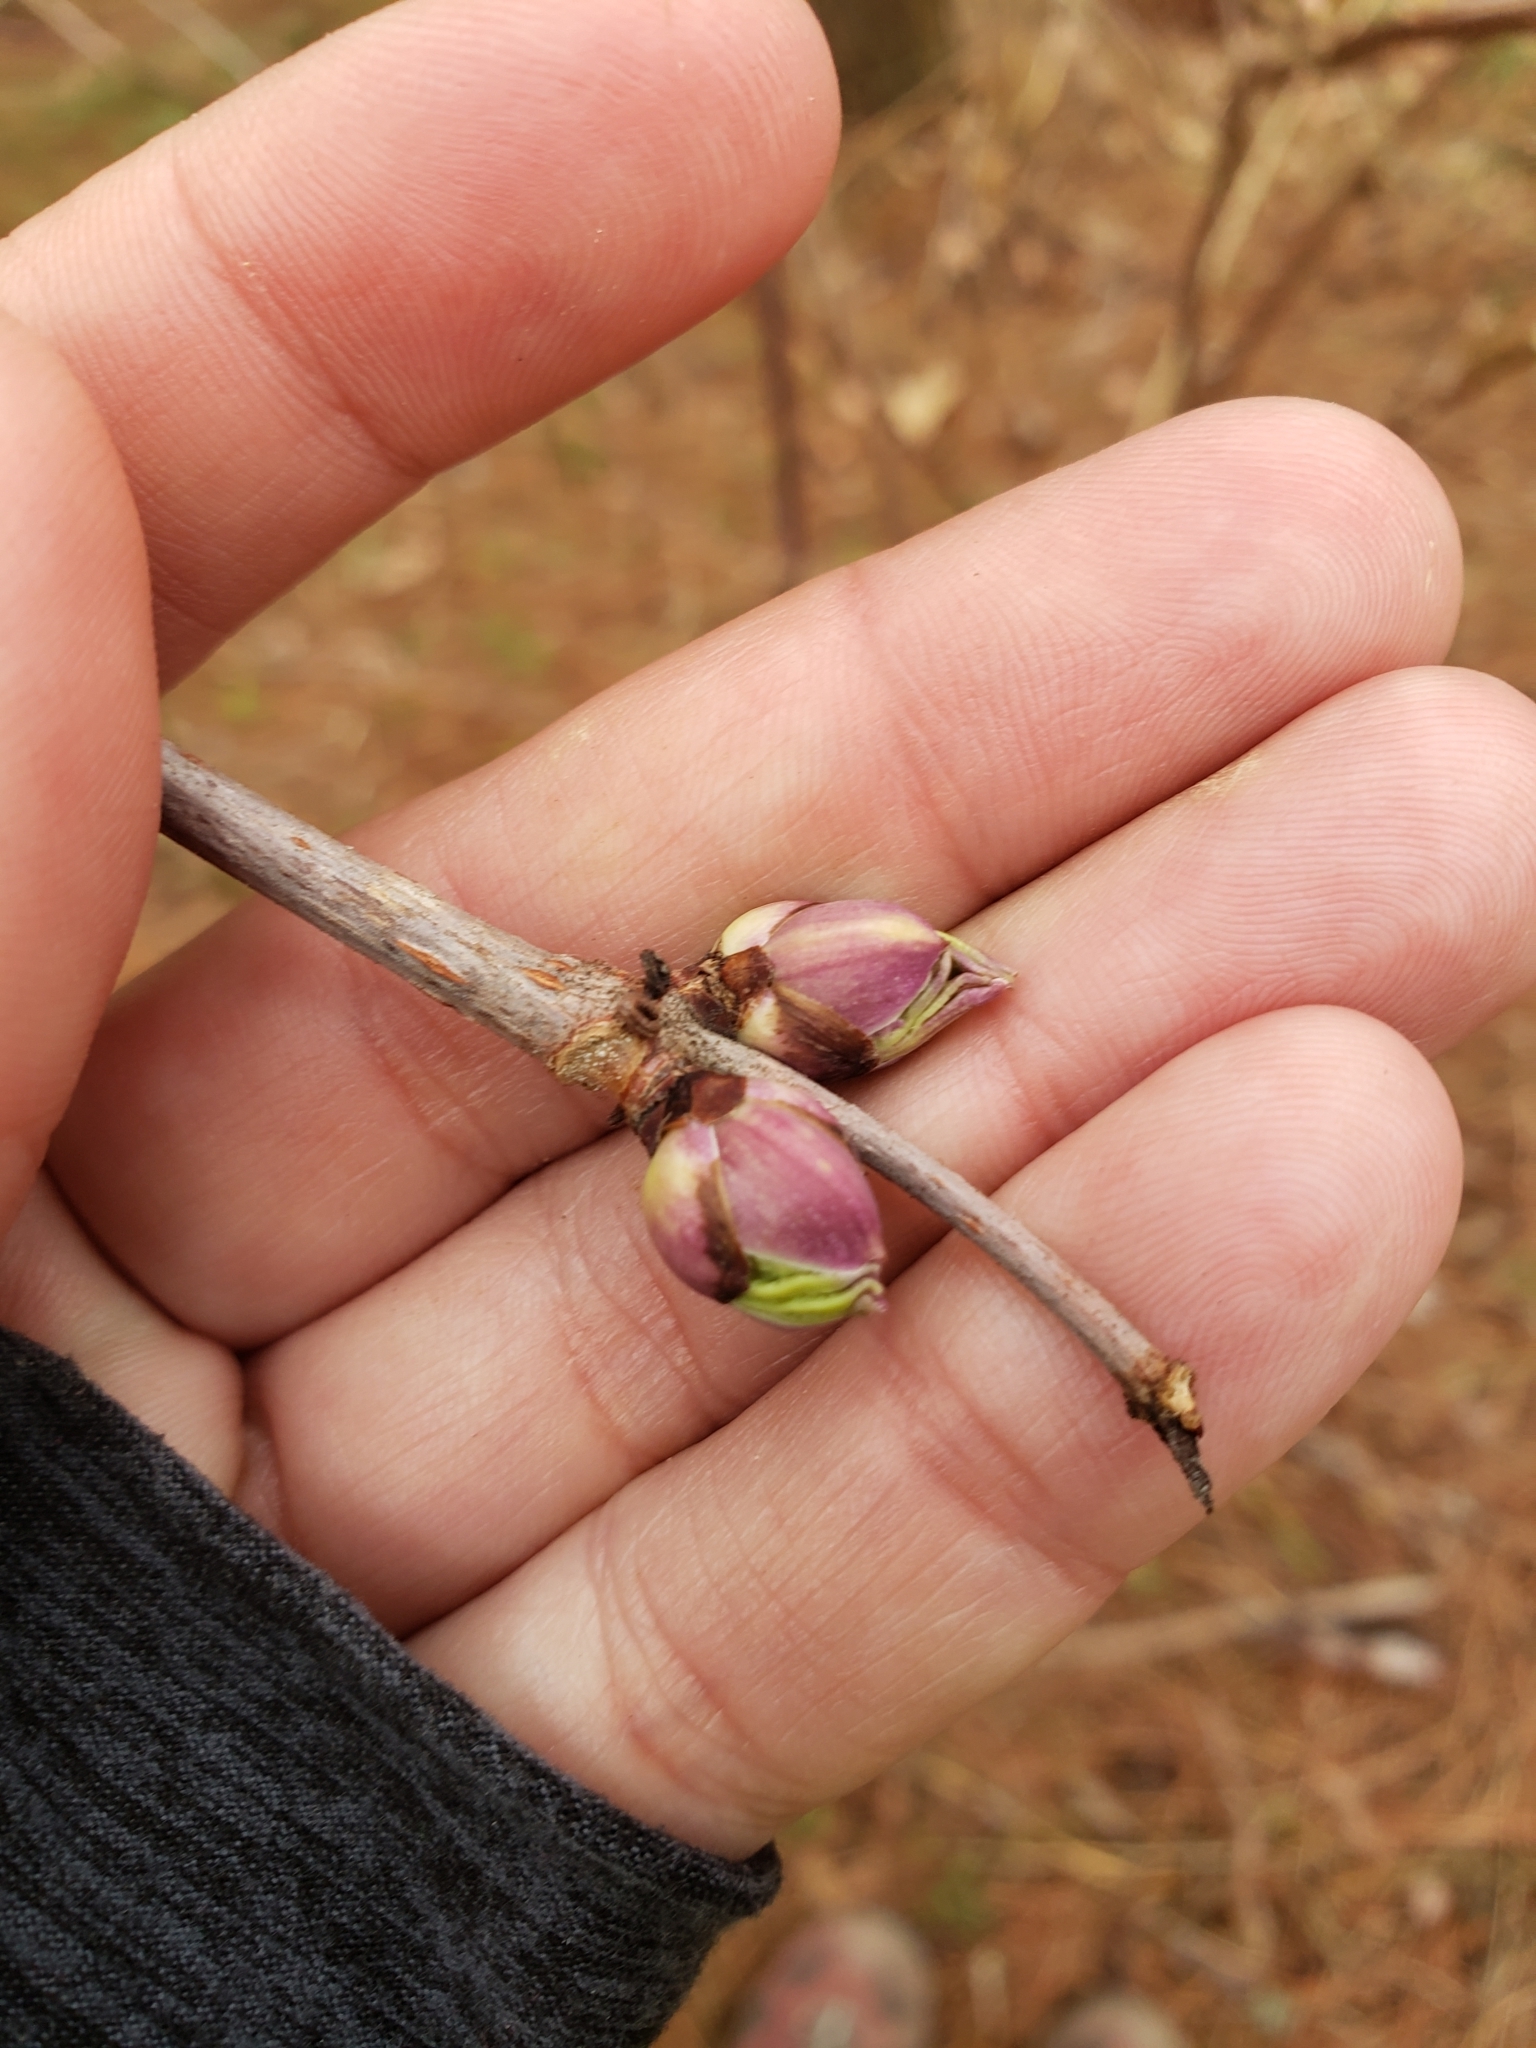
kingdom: Plantae
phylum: Tracheophyta
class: Magnoliopsida
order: Dipsacales
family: Viburnaceae
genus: Sambucus
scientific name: Sambucus racemosa
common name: Red-berried elder
